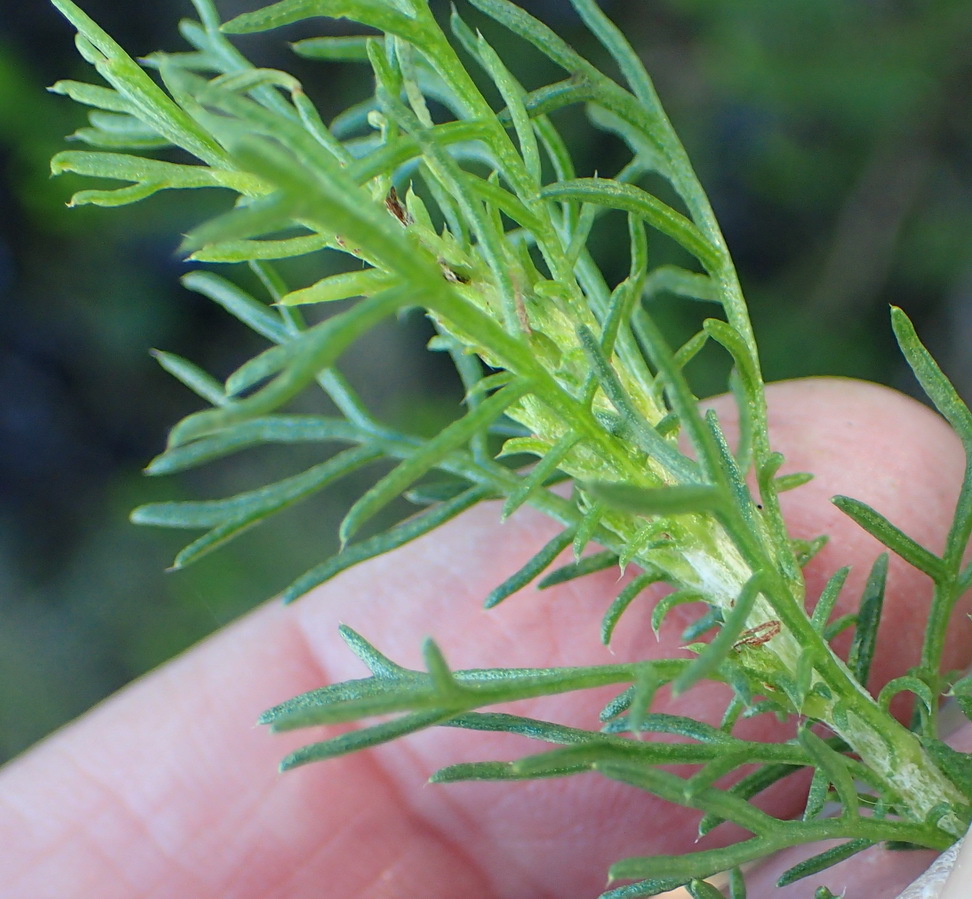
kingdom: Plantae
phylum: Tracheophyta
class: Magnoliopsida
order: Asterales
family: Asteraceae
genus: Ursinia
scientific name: Ursinia scariosa
